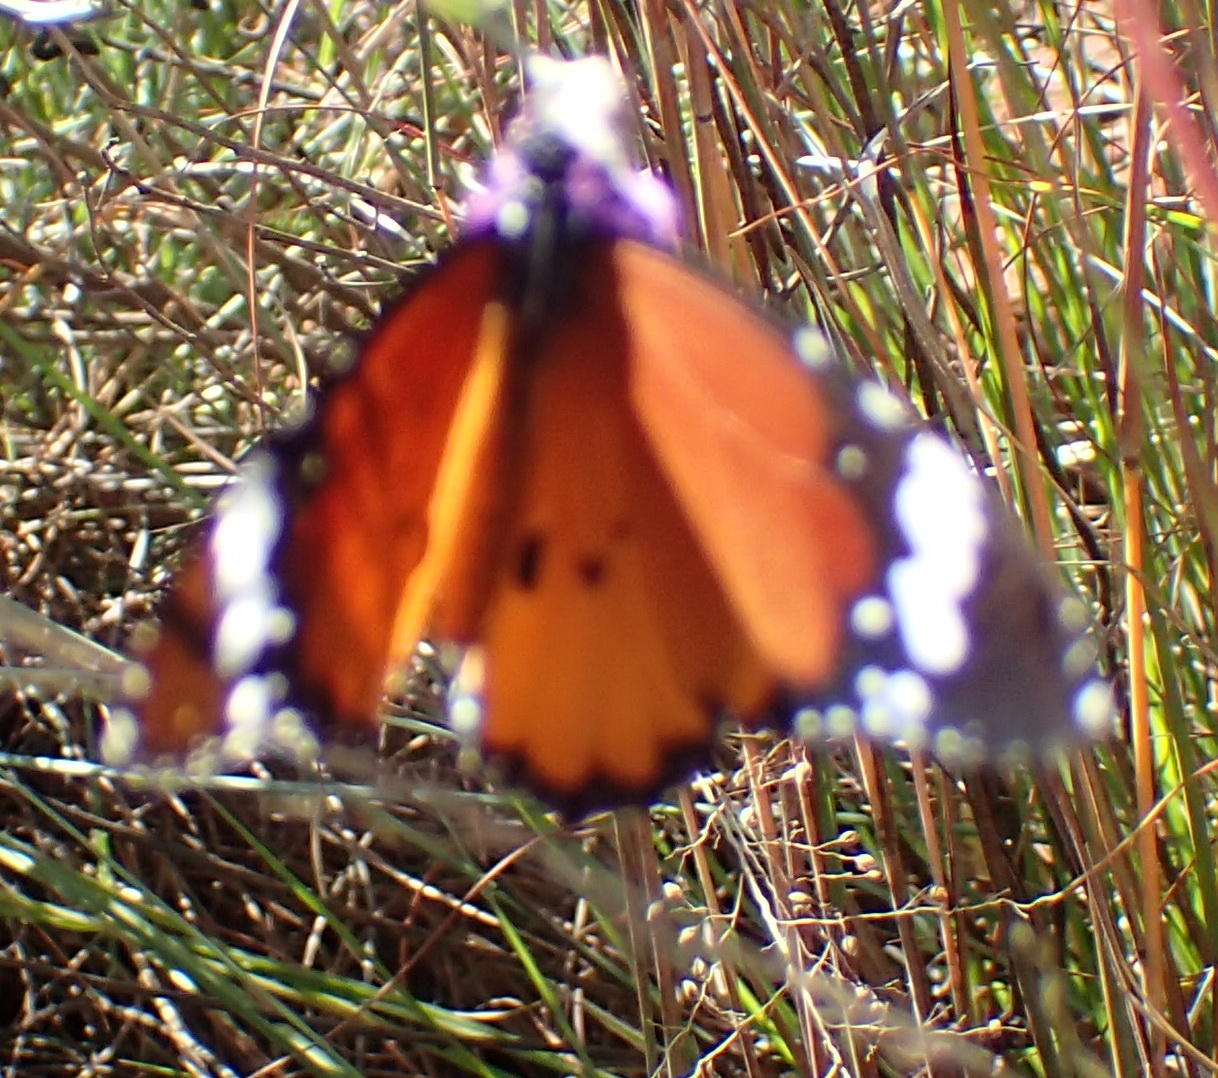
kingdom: Animalia
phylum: Arthropoda
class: Insecta
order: Lepidoptera
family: Nymphalidae
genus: Danaus
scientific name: Danaus chrysippus
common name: Plain tiger
